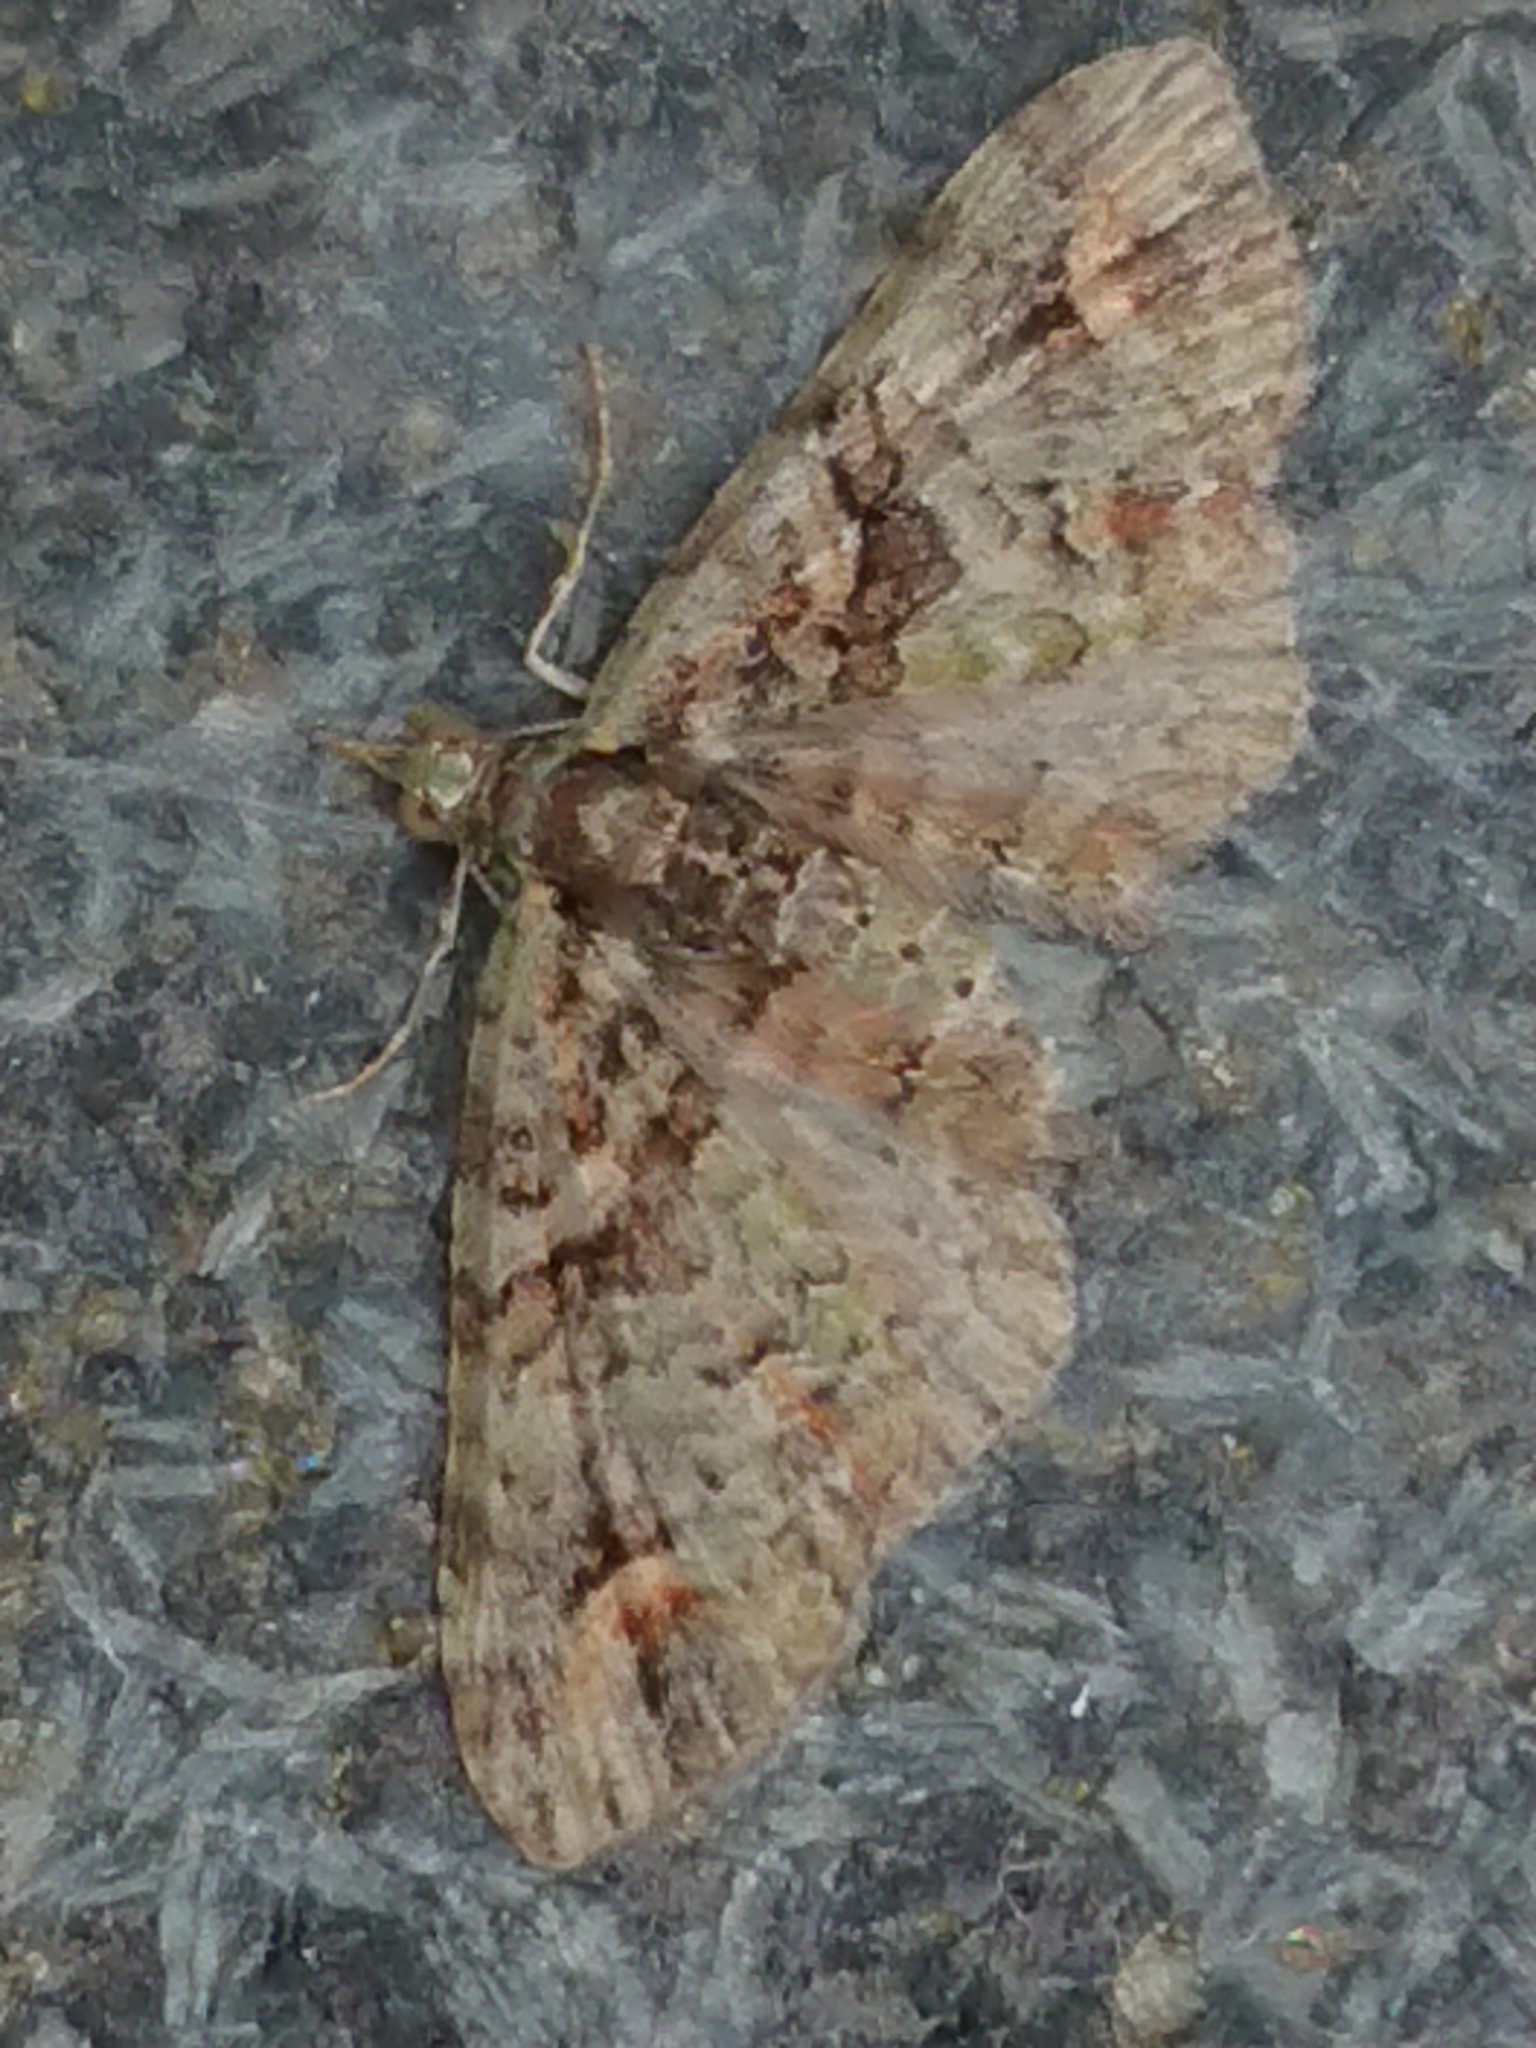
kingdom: Animalia
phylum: Arthropoda
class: Insecta
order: Lepidoptera
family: Geometridae
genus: Idaea
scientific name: Idaea mutanda
